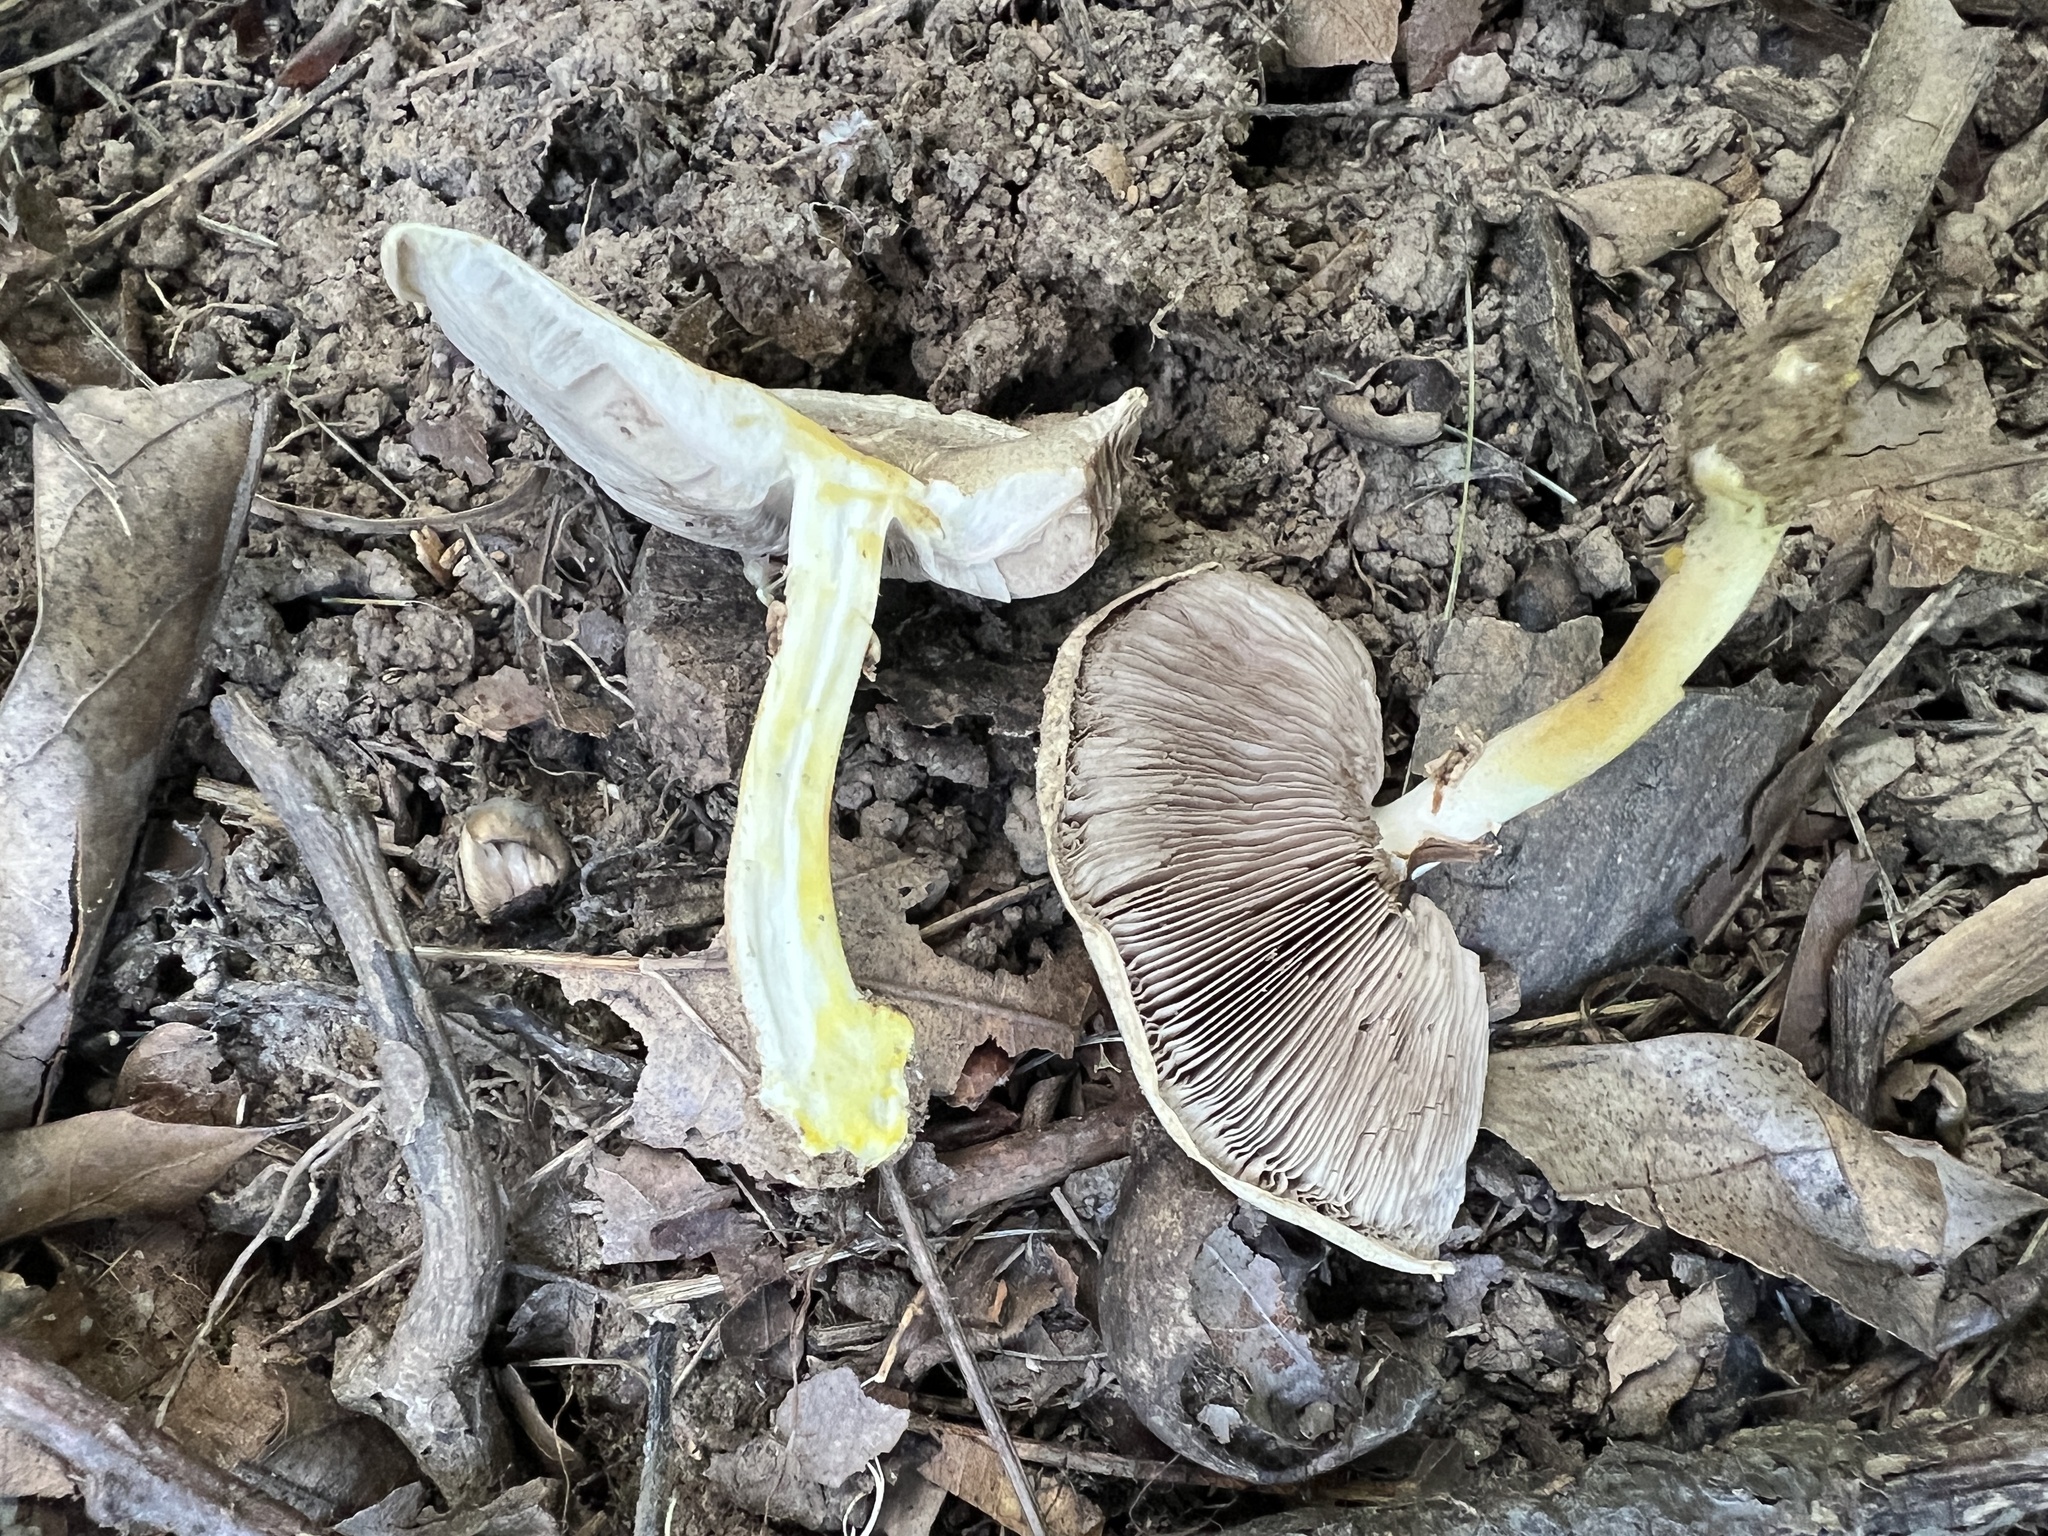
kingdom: Fungi
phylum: Basidiomycota
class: Agaricomycetes
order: Agaricales
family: Agaricaceae
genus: Agaricus
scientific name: Agaricus pocillator
